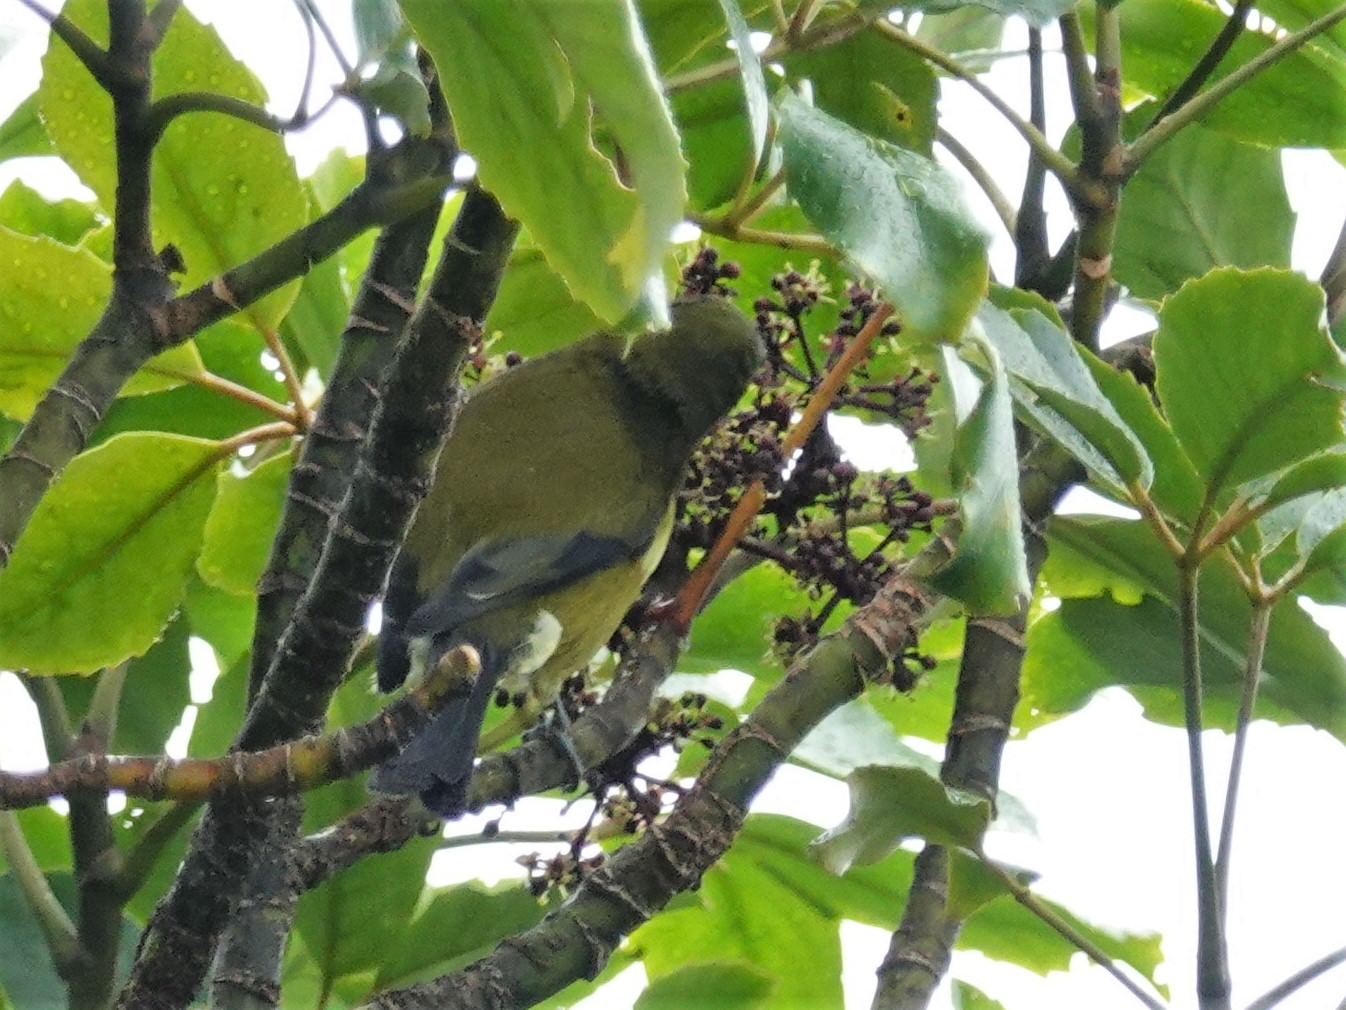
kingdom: Animalia
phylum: Chordata
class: Aves
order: Passeriformes
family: Meliphagidae
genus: Anthornis
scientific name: Anthornis melanura
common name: New zealand bellbird
